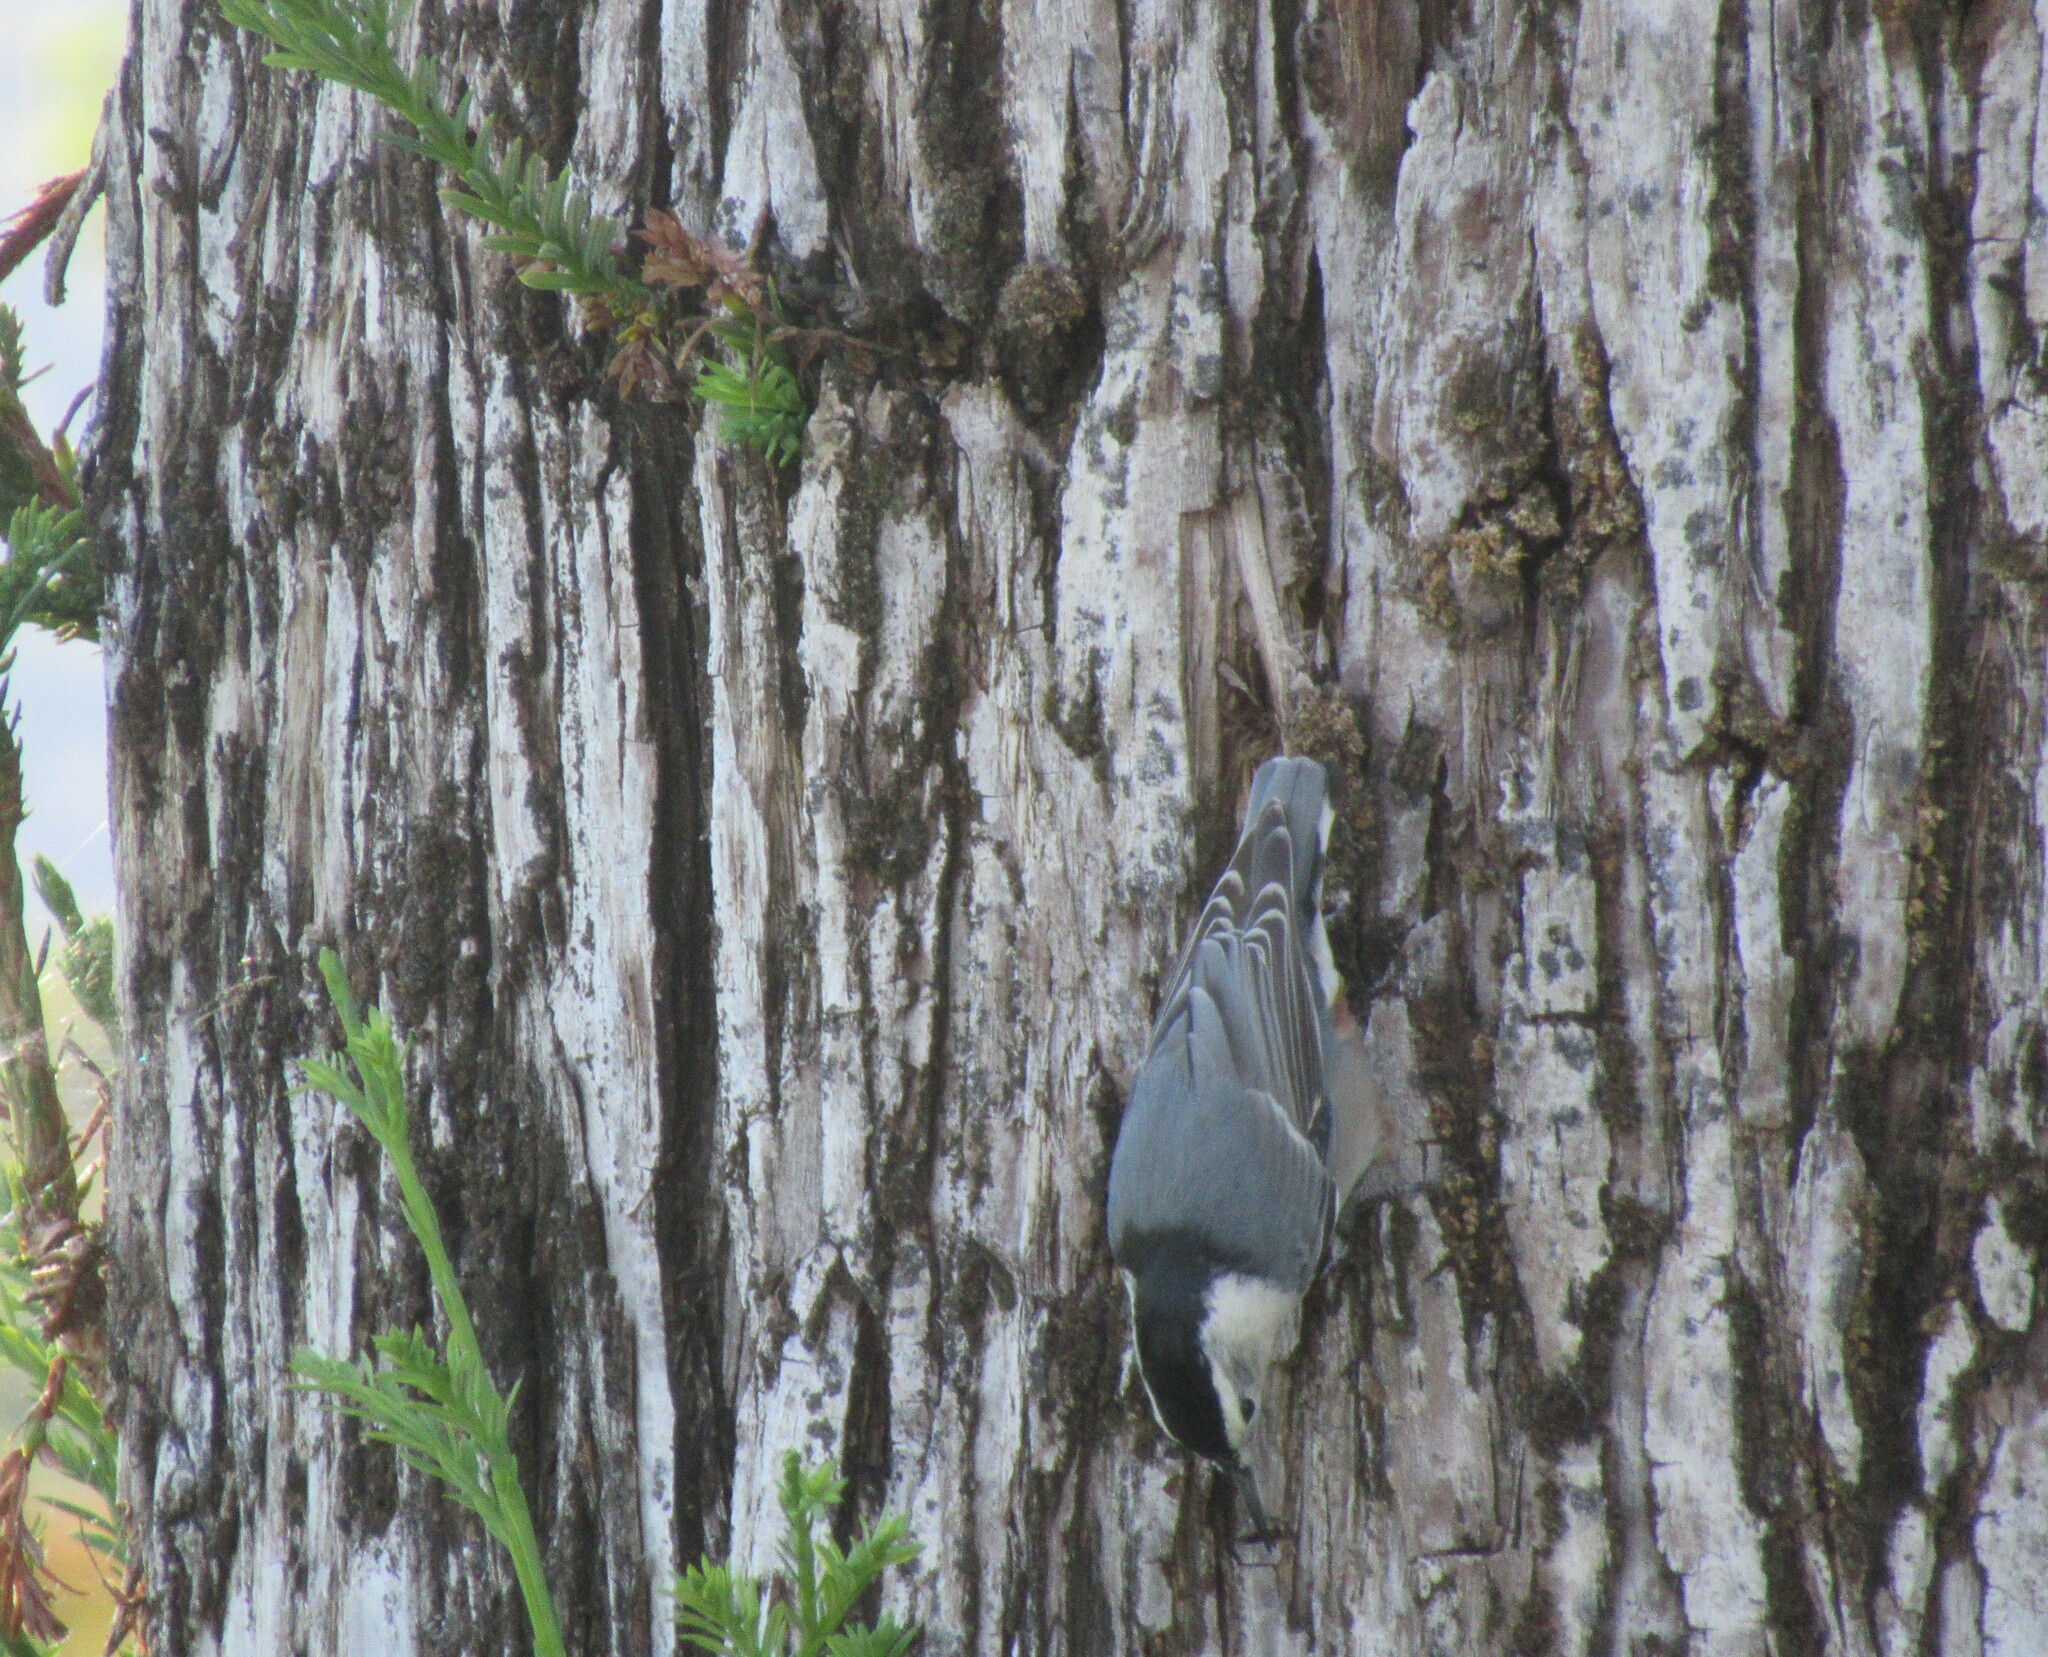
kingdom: Animalia
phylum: Chordata
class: Aves
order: Passeriformes
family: Sittidae
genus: Sitta
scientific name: Sitta carolinensis
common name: White-breasted nuthatch
